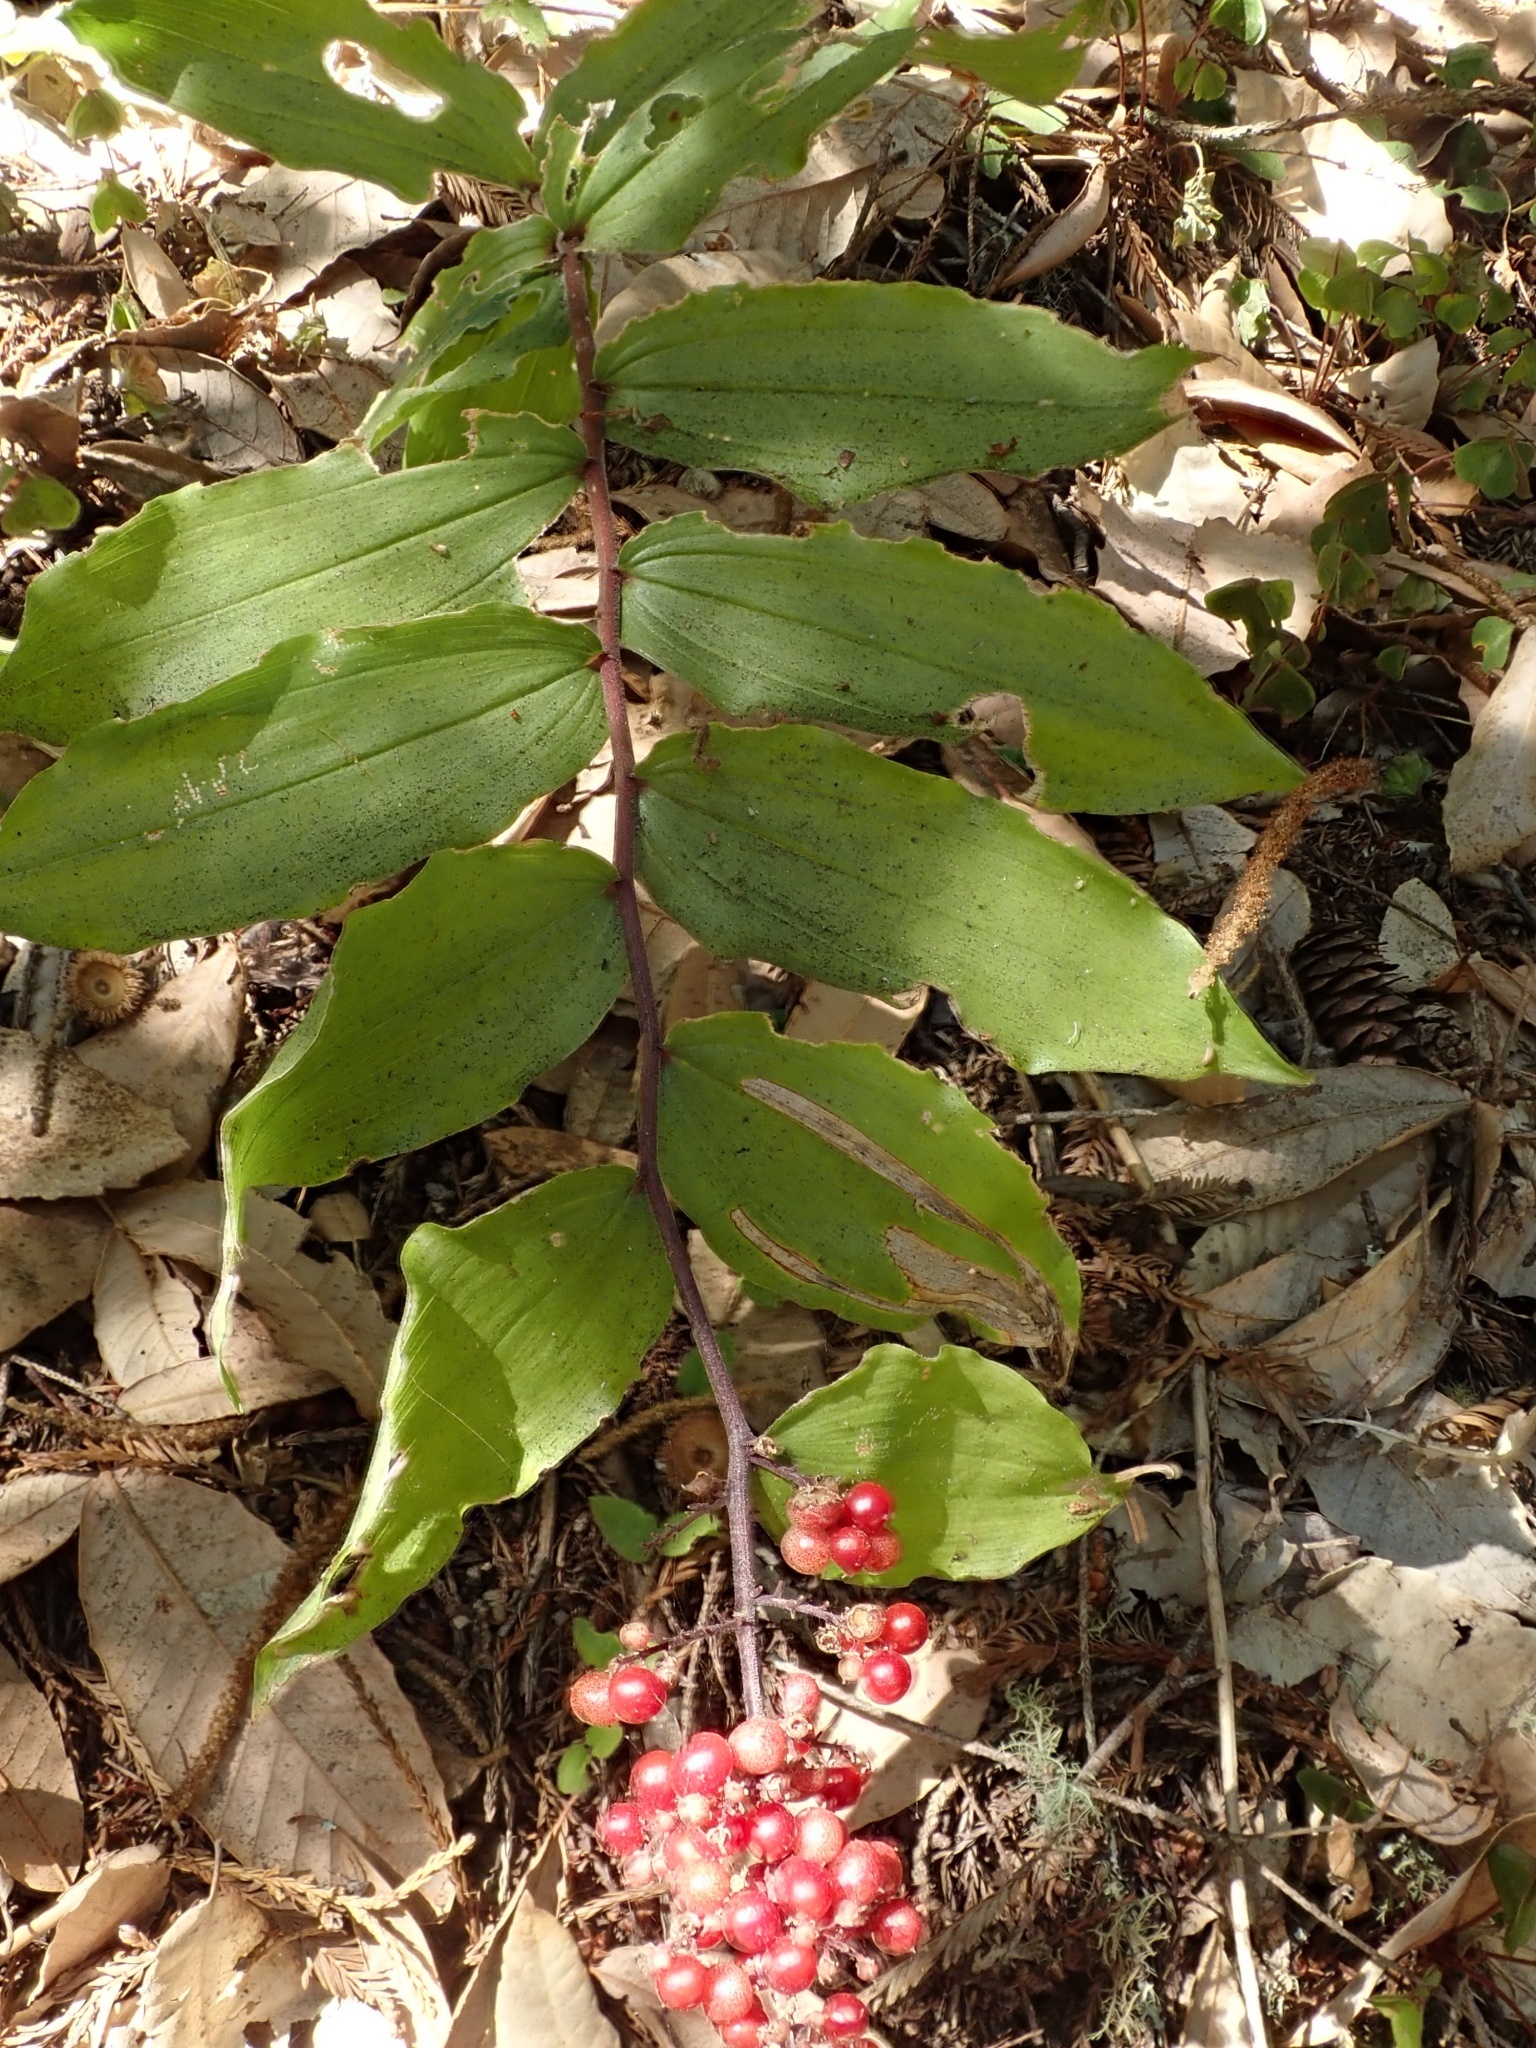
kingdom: Plantae
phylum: Tracheophyta
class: Liliopsida
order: Asparagales
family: Asparagaceae
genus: Maianthemum
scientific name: Maianthemum racemosum
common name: False spikenard
